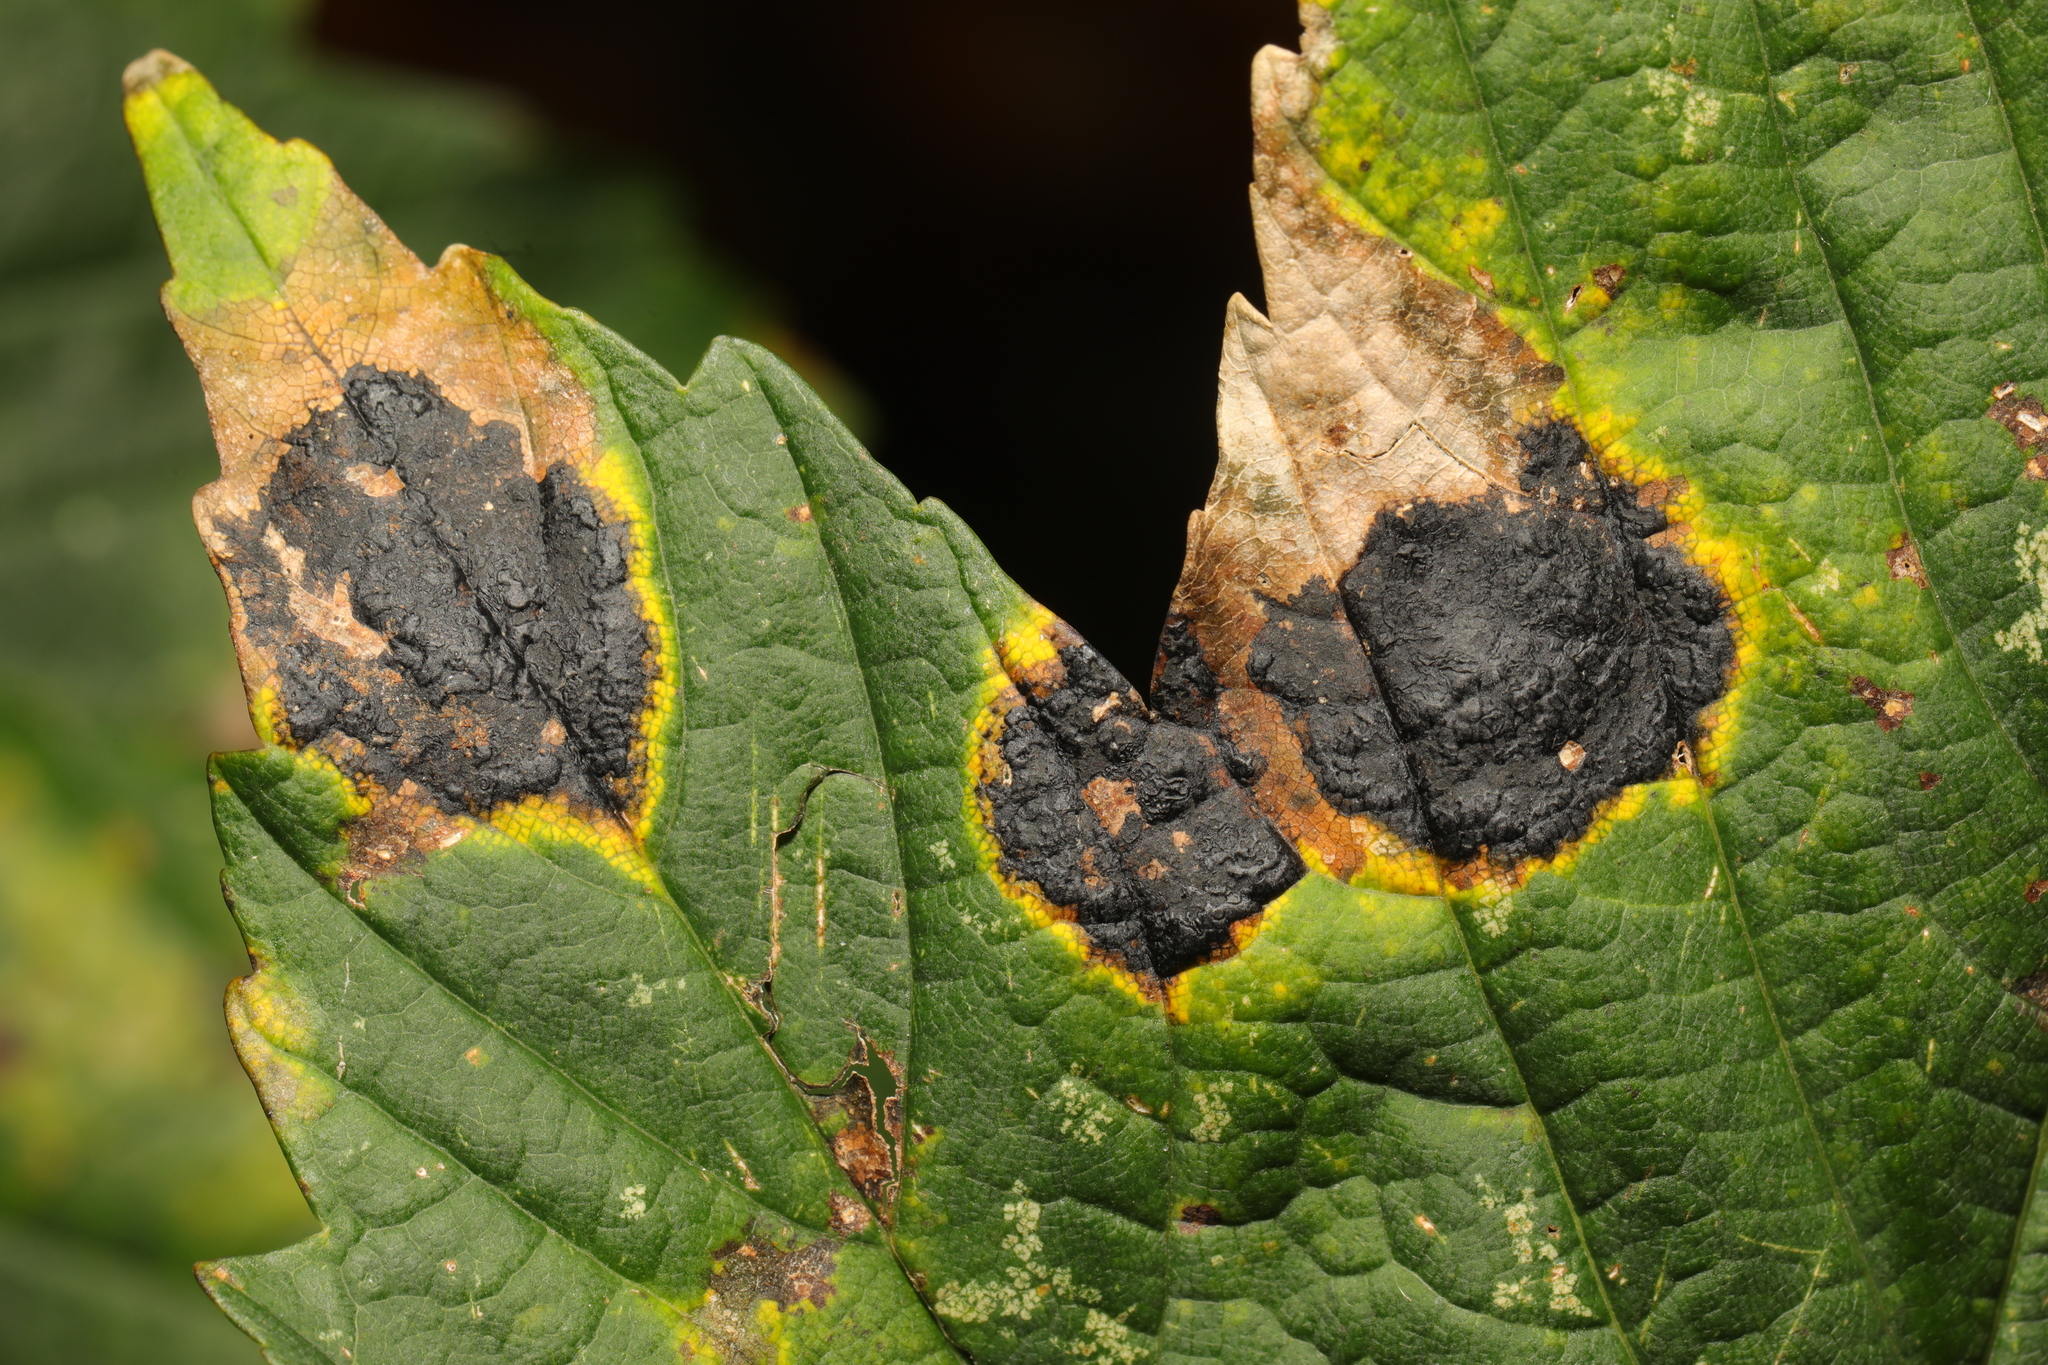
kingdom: Fungi
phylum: Ascomycota
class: Leotiomycetes
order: Rhytismatales
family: Rhytismataceae
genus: Rhytisma
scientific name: Rhytisma acerinum
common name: European tar spot
